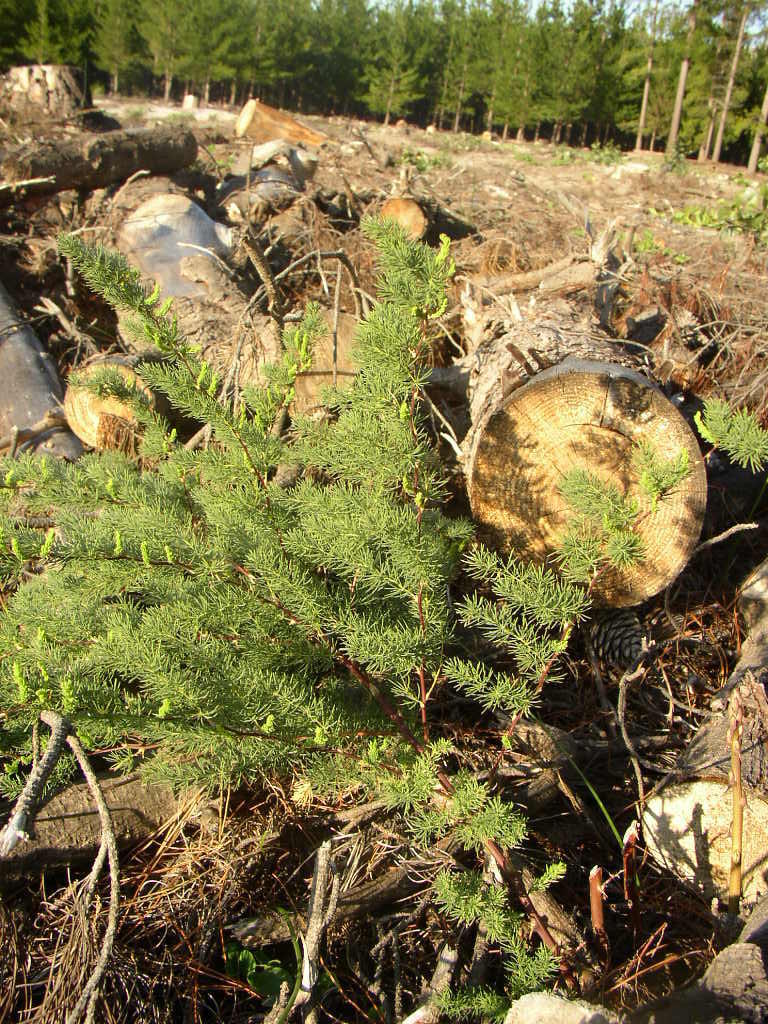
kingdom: Plantae
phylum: Tracheophyta
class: Liliopsida
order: Asparagales
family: Asparagaceae
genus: Asparagus
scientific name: Asparagus rubicundus
